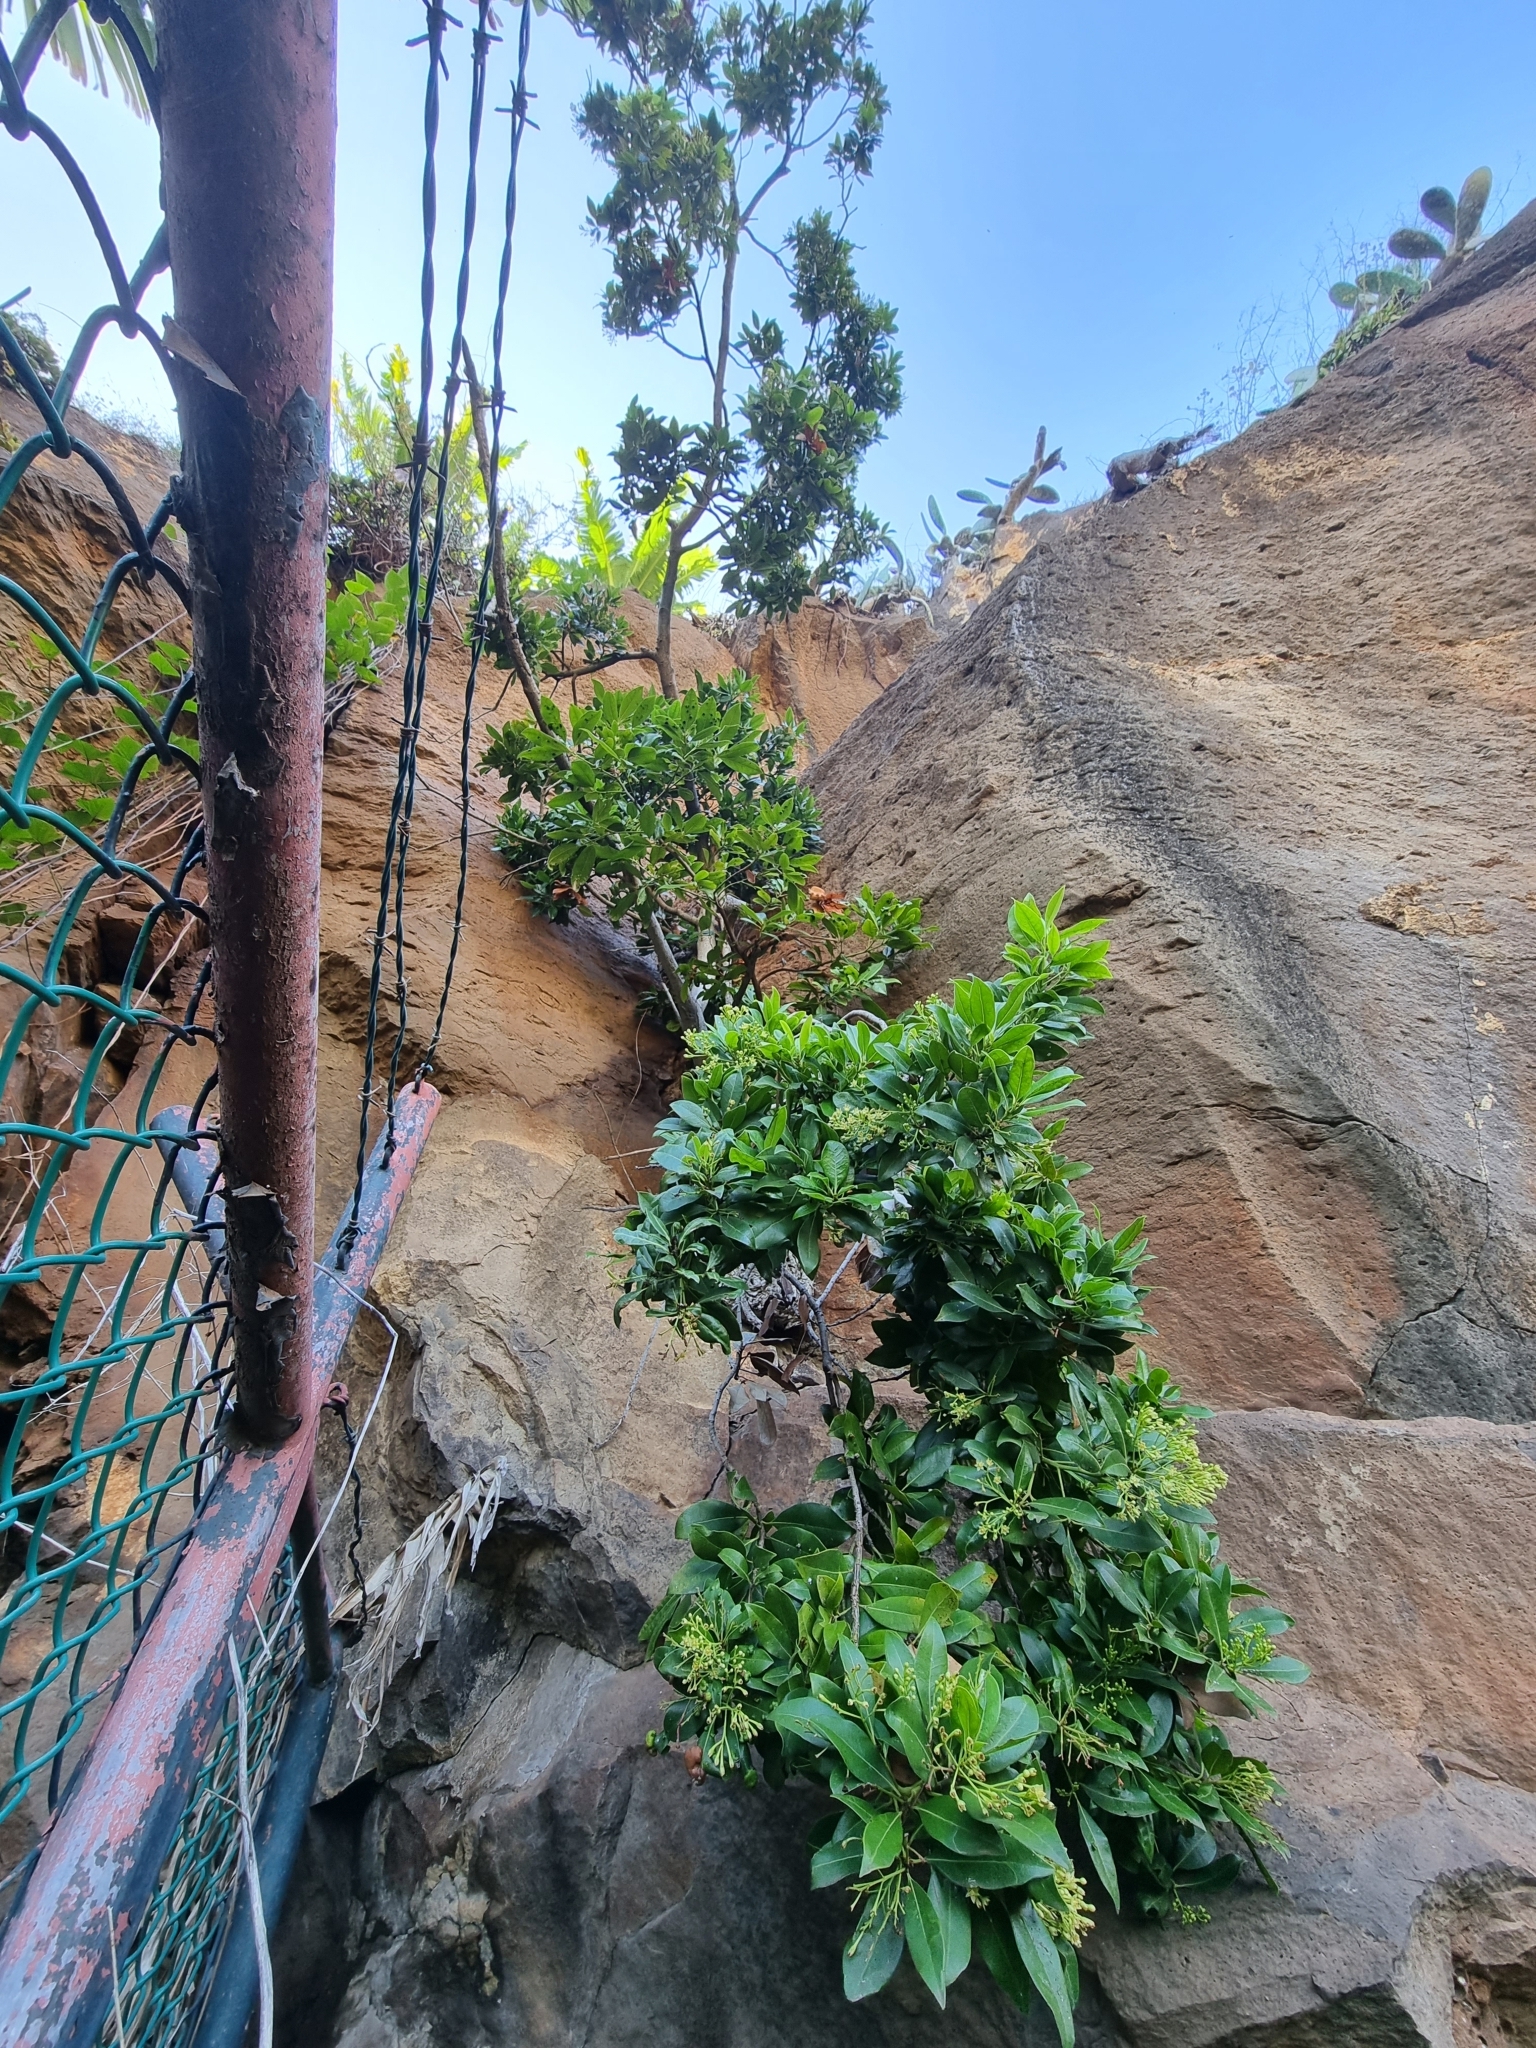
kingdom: Plantae
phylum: Tracheophyta
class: Magnoliopsida
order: Laurales
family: Lauraceae
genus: Apollonias
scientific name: Apollonias barbujana
